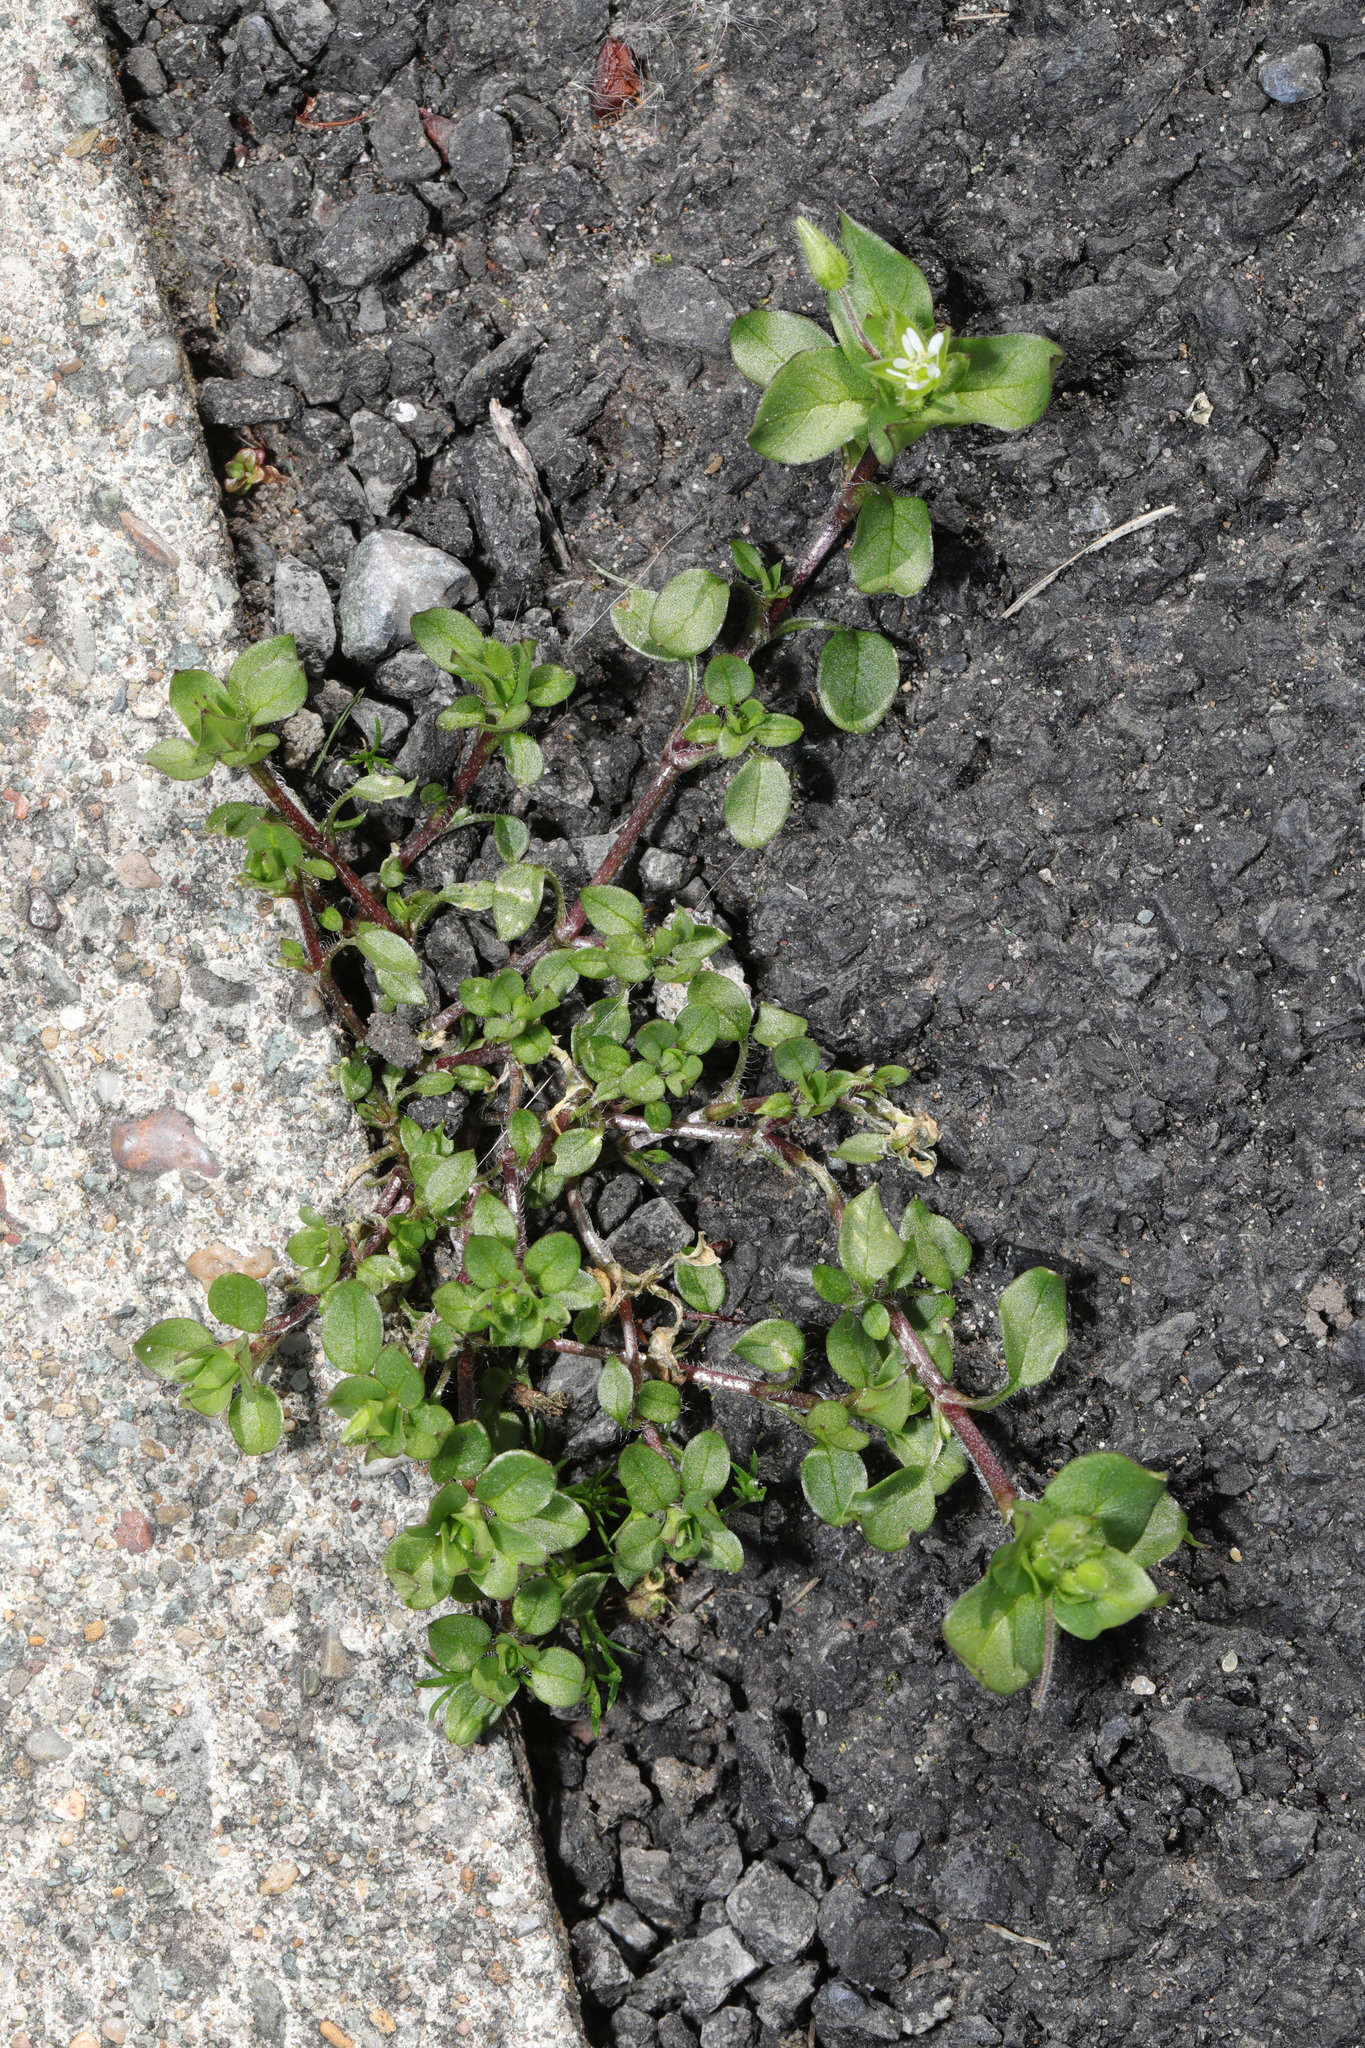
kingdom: Plantae
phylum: Tracheophyta
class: Magnoliopsida
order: Caryophyllales
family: Caryophyllaceae
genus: Stellaria
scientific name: Stellaria media
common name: Common chickweed
